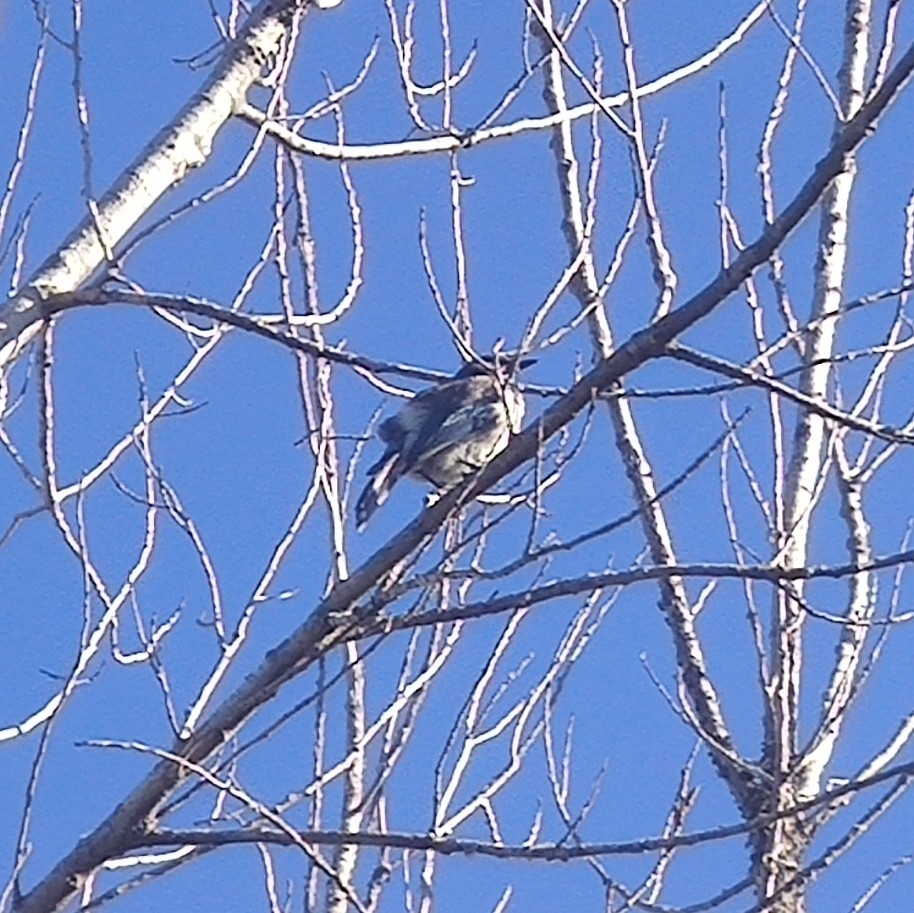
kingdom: Animalia
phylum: Chordata
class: Aves
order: Passeriformes
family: Corvidae
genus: Aphelocoma
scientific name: Aphelocoma californica
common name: California scrub-jay
